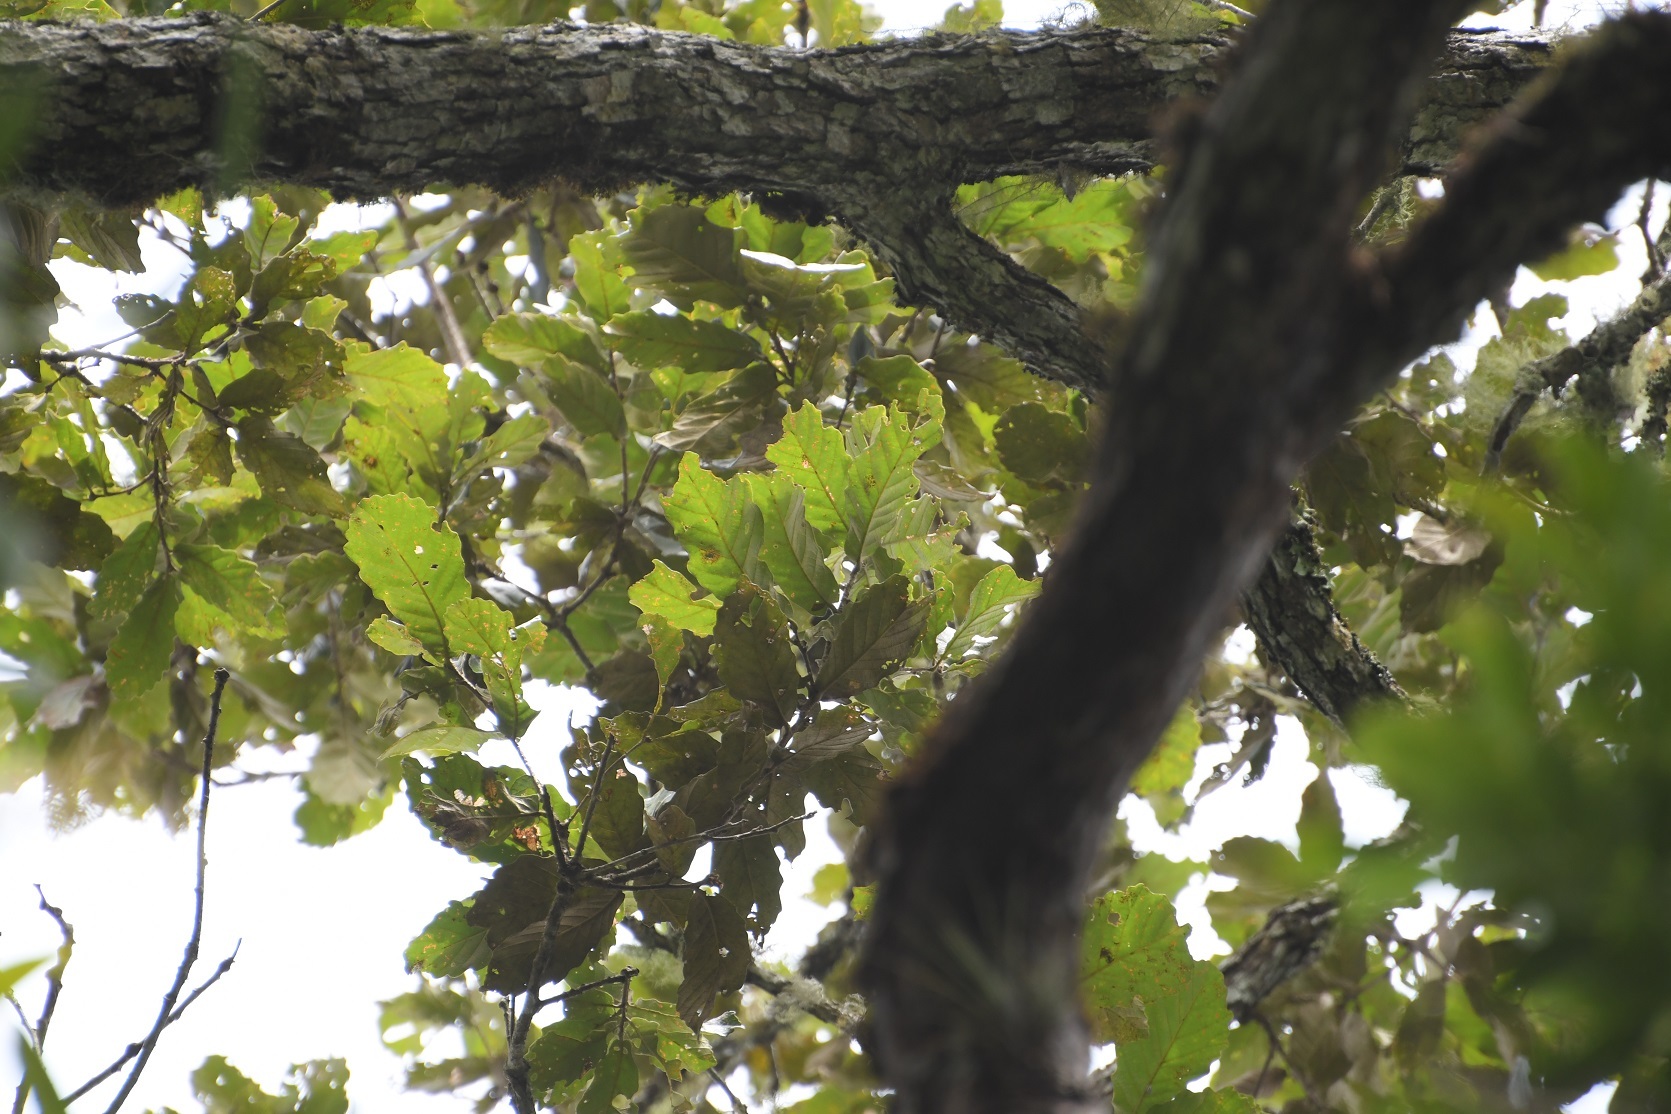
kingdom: Plantae
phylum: Tracheophyta
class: Magnoliopsida
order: Fagales
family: Fagaceae
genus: Quercus
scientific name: Quercus purulhana
